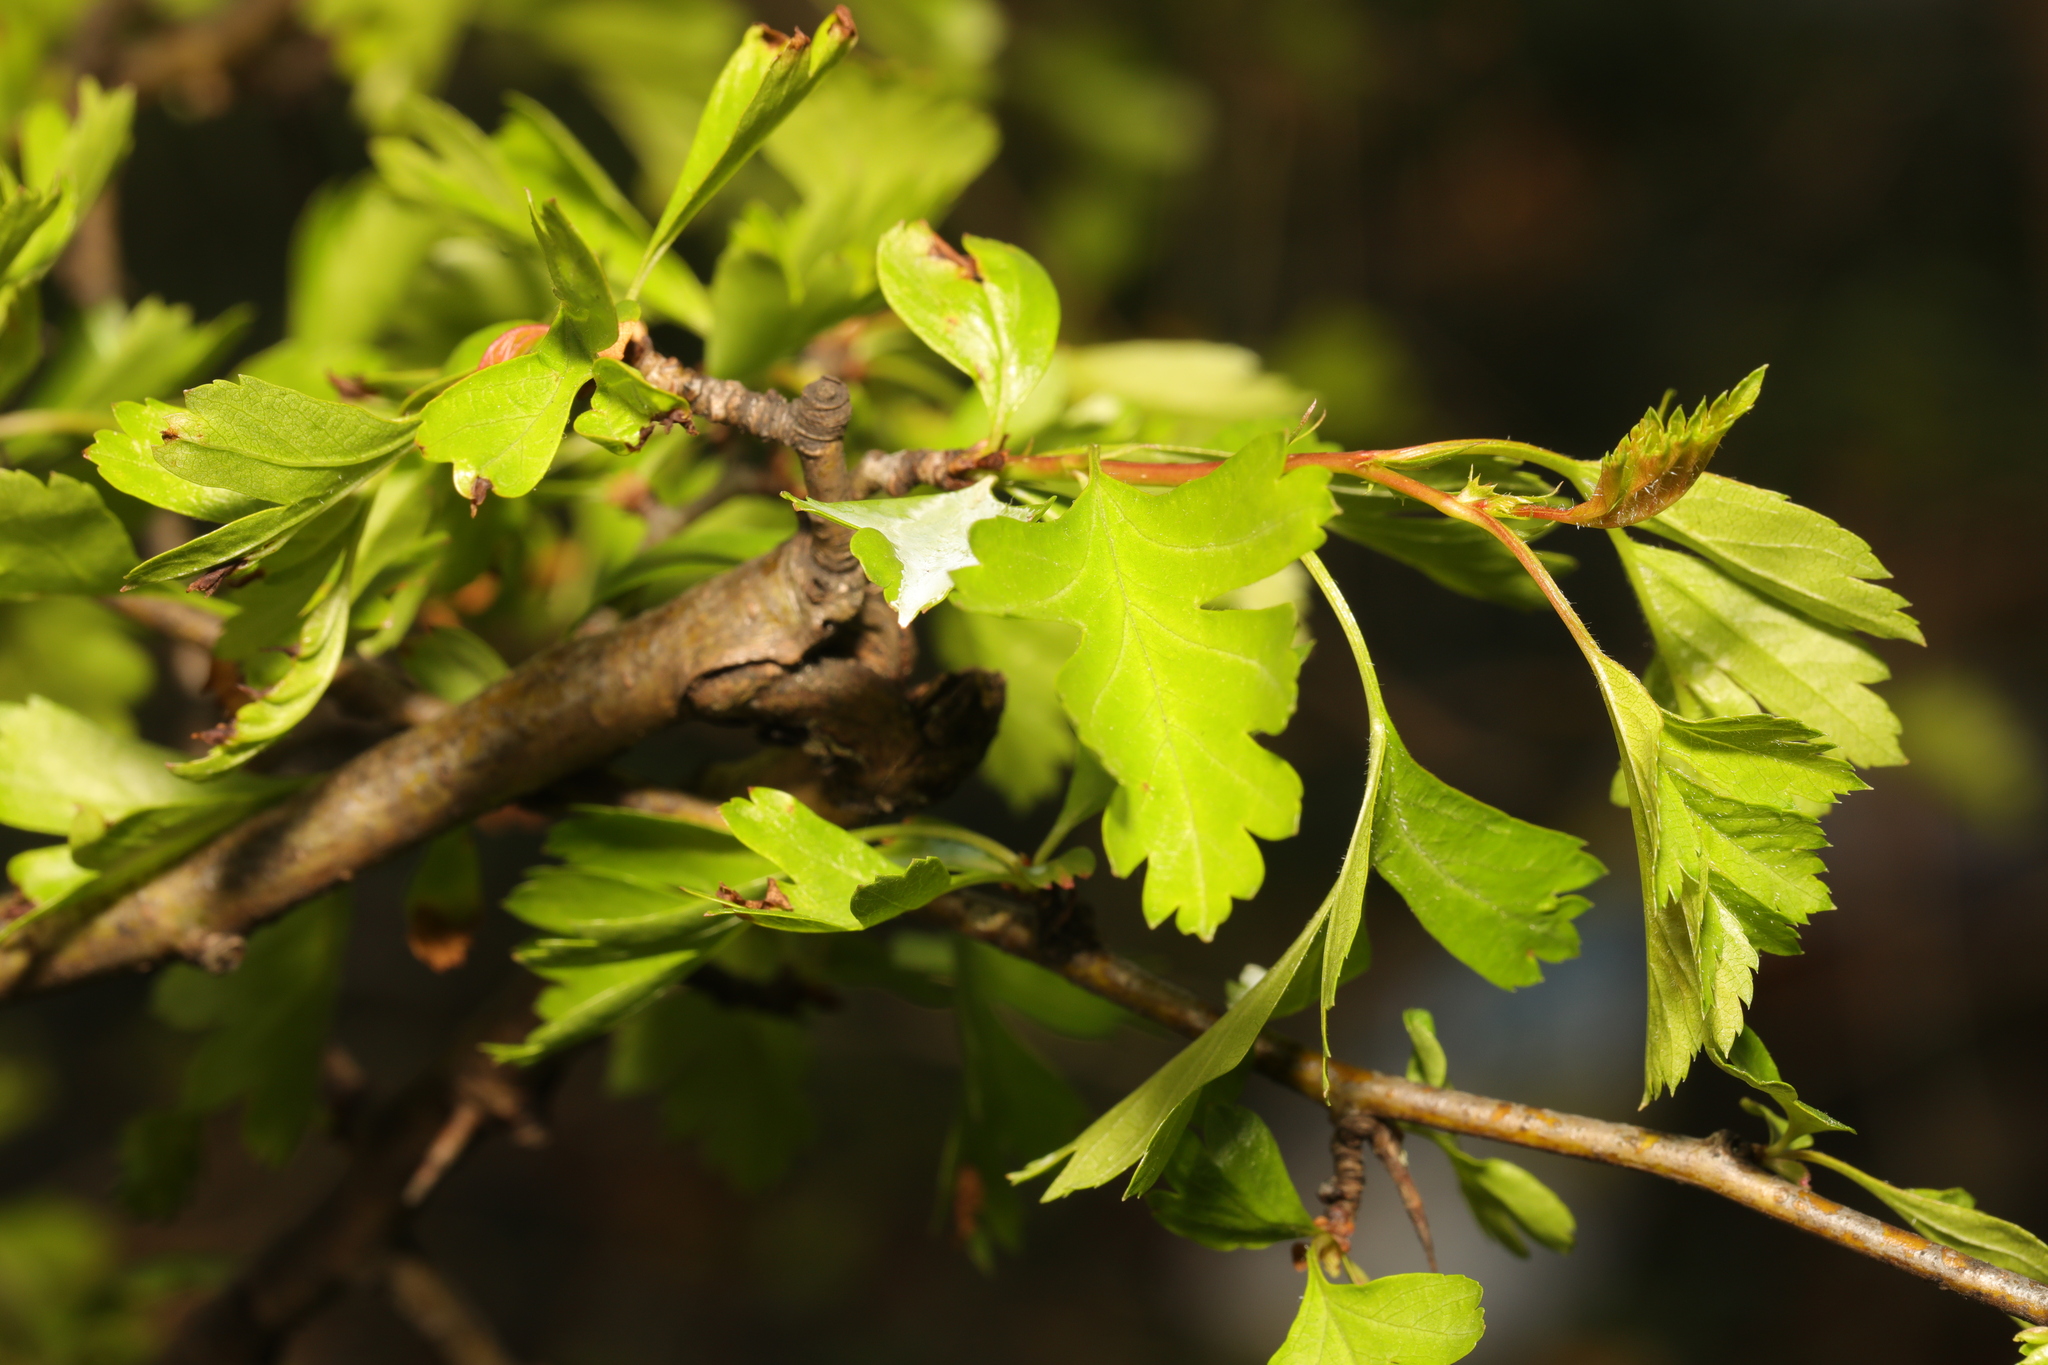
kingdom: Plantae
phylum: Tracheophyta
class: Magnoliopsida
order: Rosales
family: Rosaceae
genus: Crataegus
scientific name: Crataegus monogyna
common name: Hawthorn
